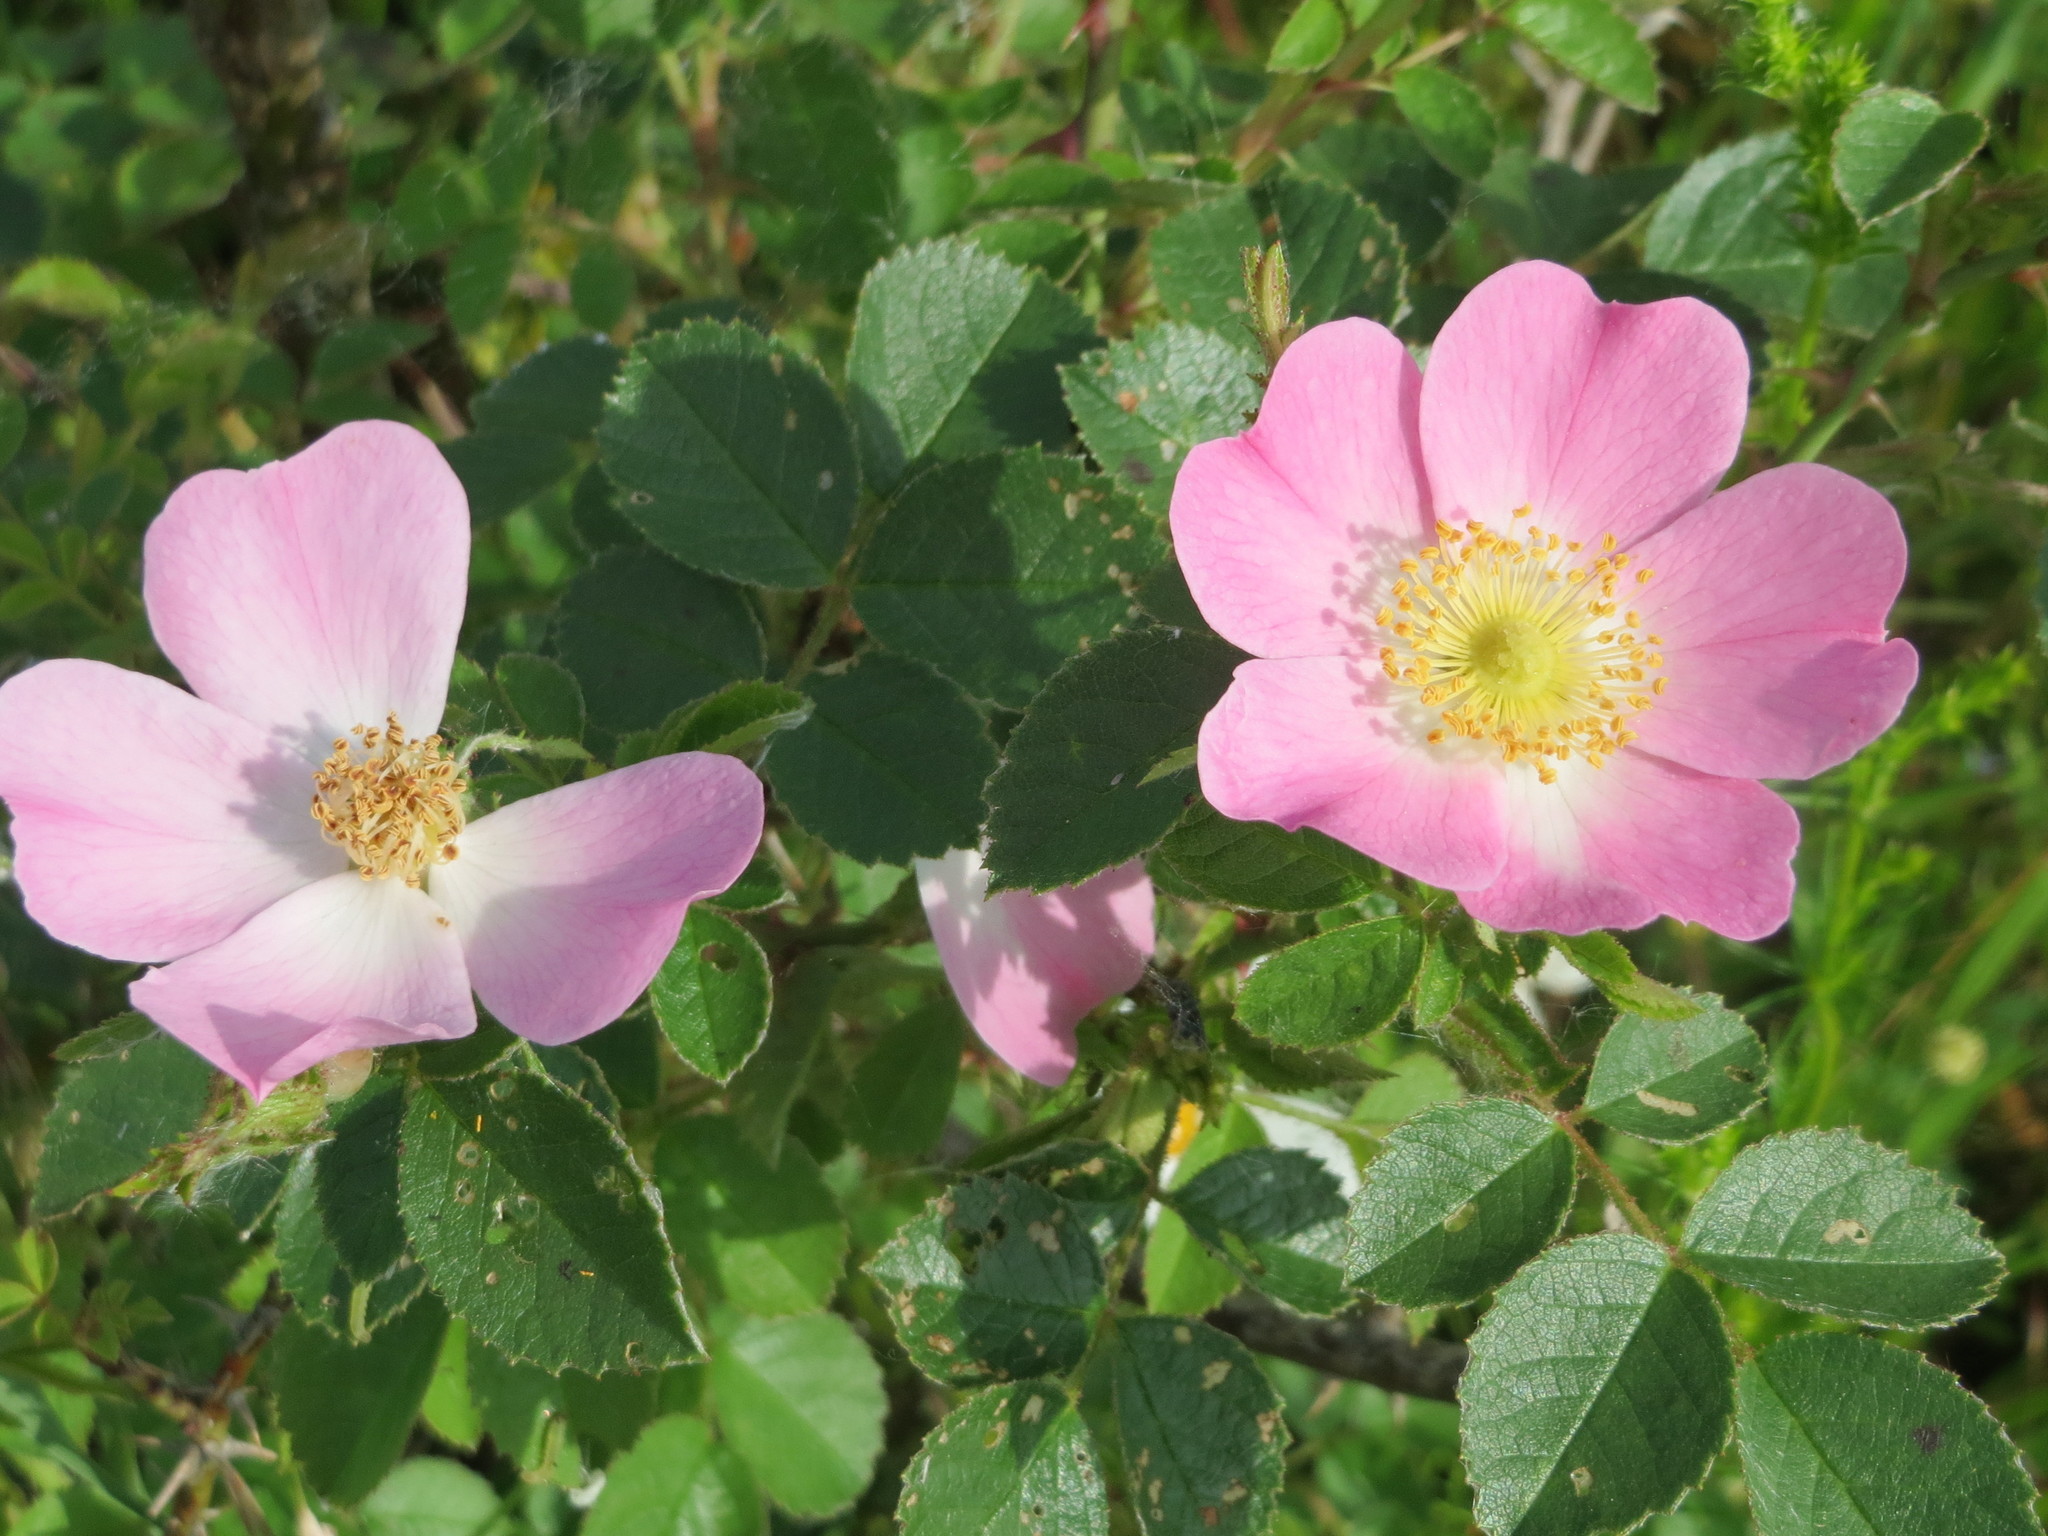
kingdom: Plantae
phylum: Tracheophyta
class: Magnoliopsida
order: Rosales
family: Rosaceae
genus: Rosa
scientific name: Rosa rubiginosa
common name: Sweet-briar
